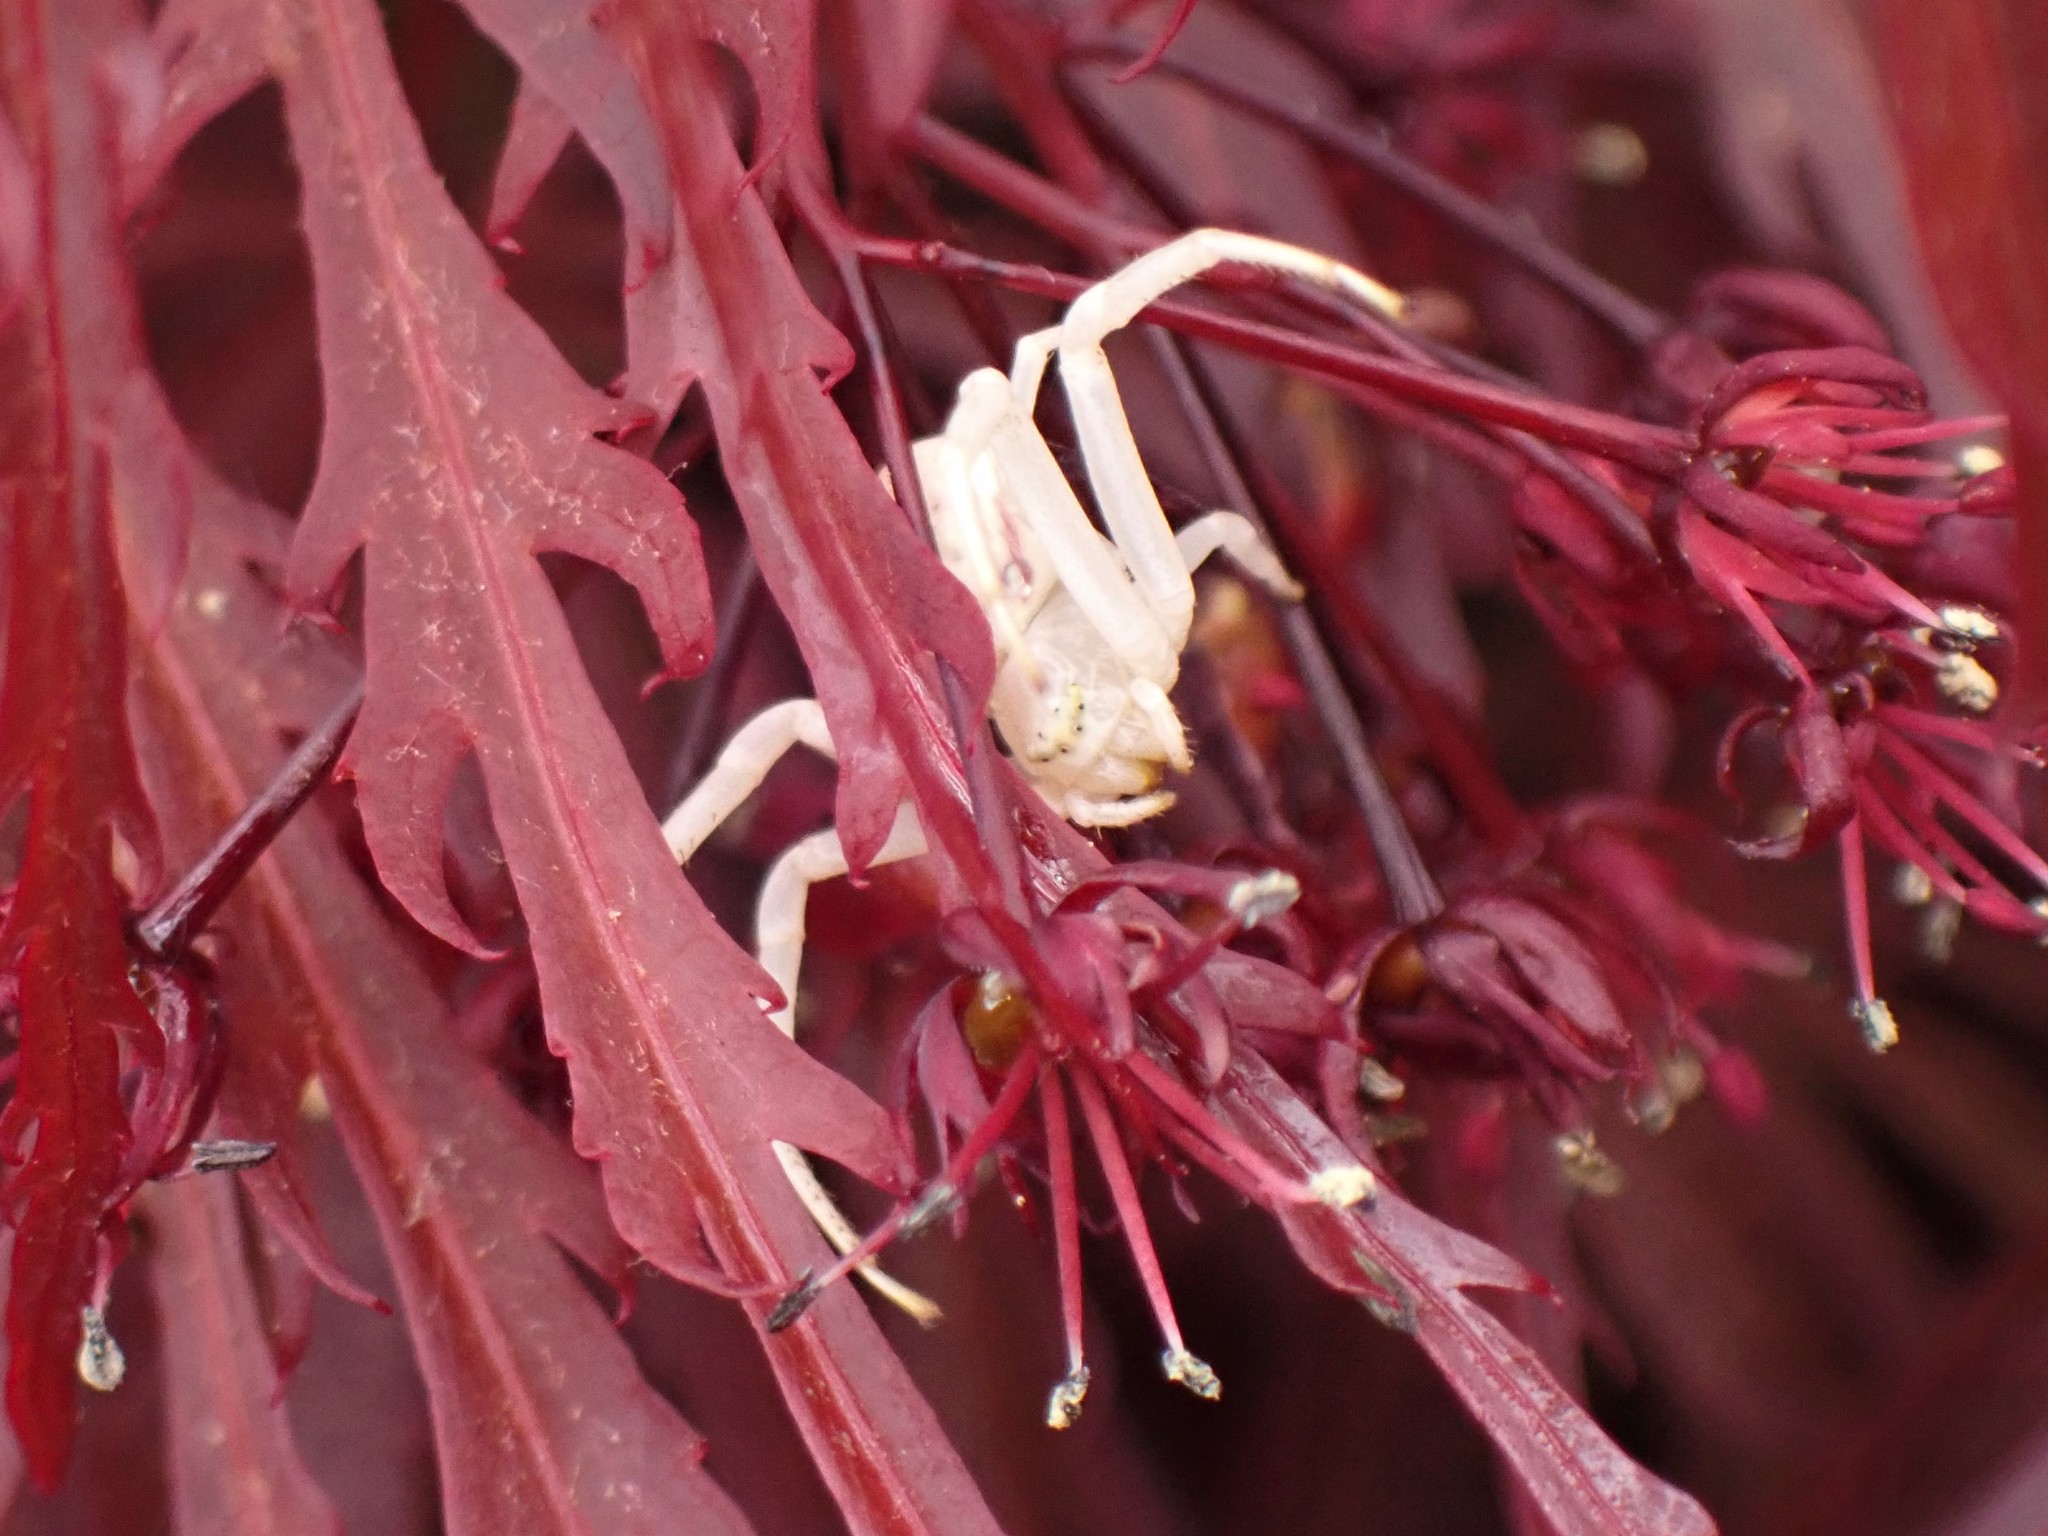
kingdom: Animalia
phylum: Arthropoda
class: Arachnida
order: Araneae
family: Thomisidae
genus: Misumena
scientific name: Misumena vatia
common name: Goldenrod crab spider
